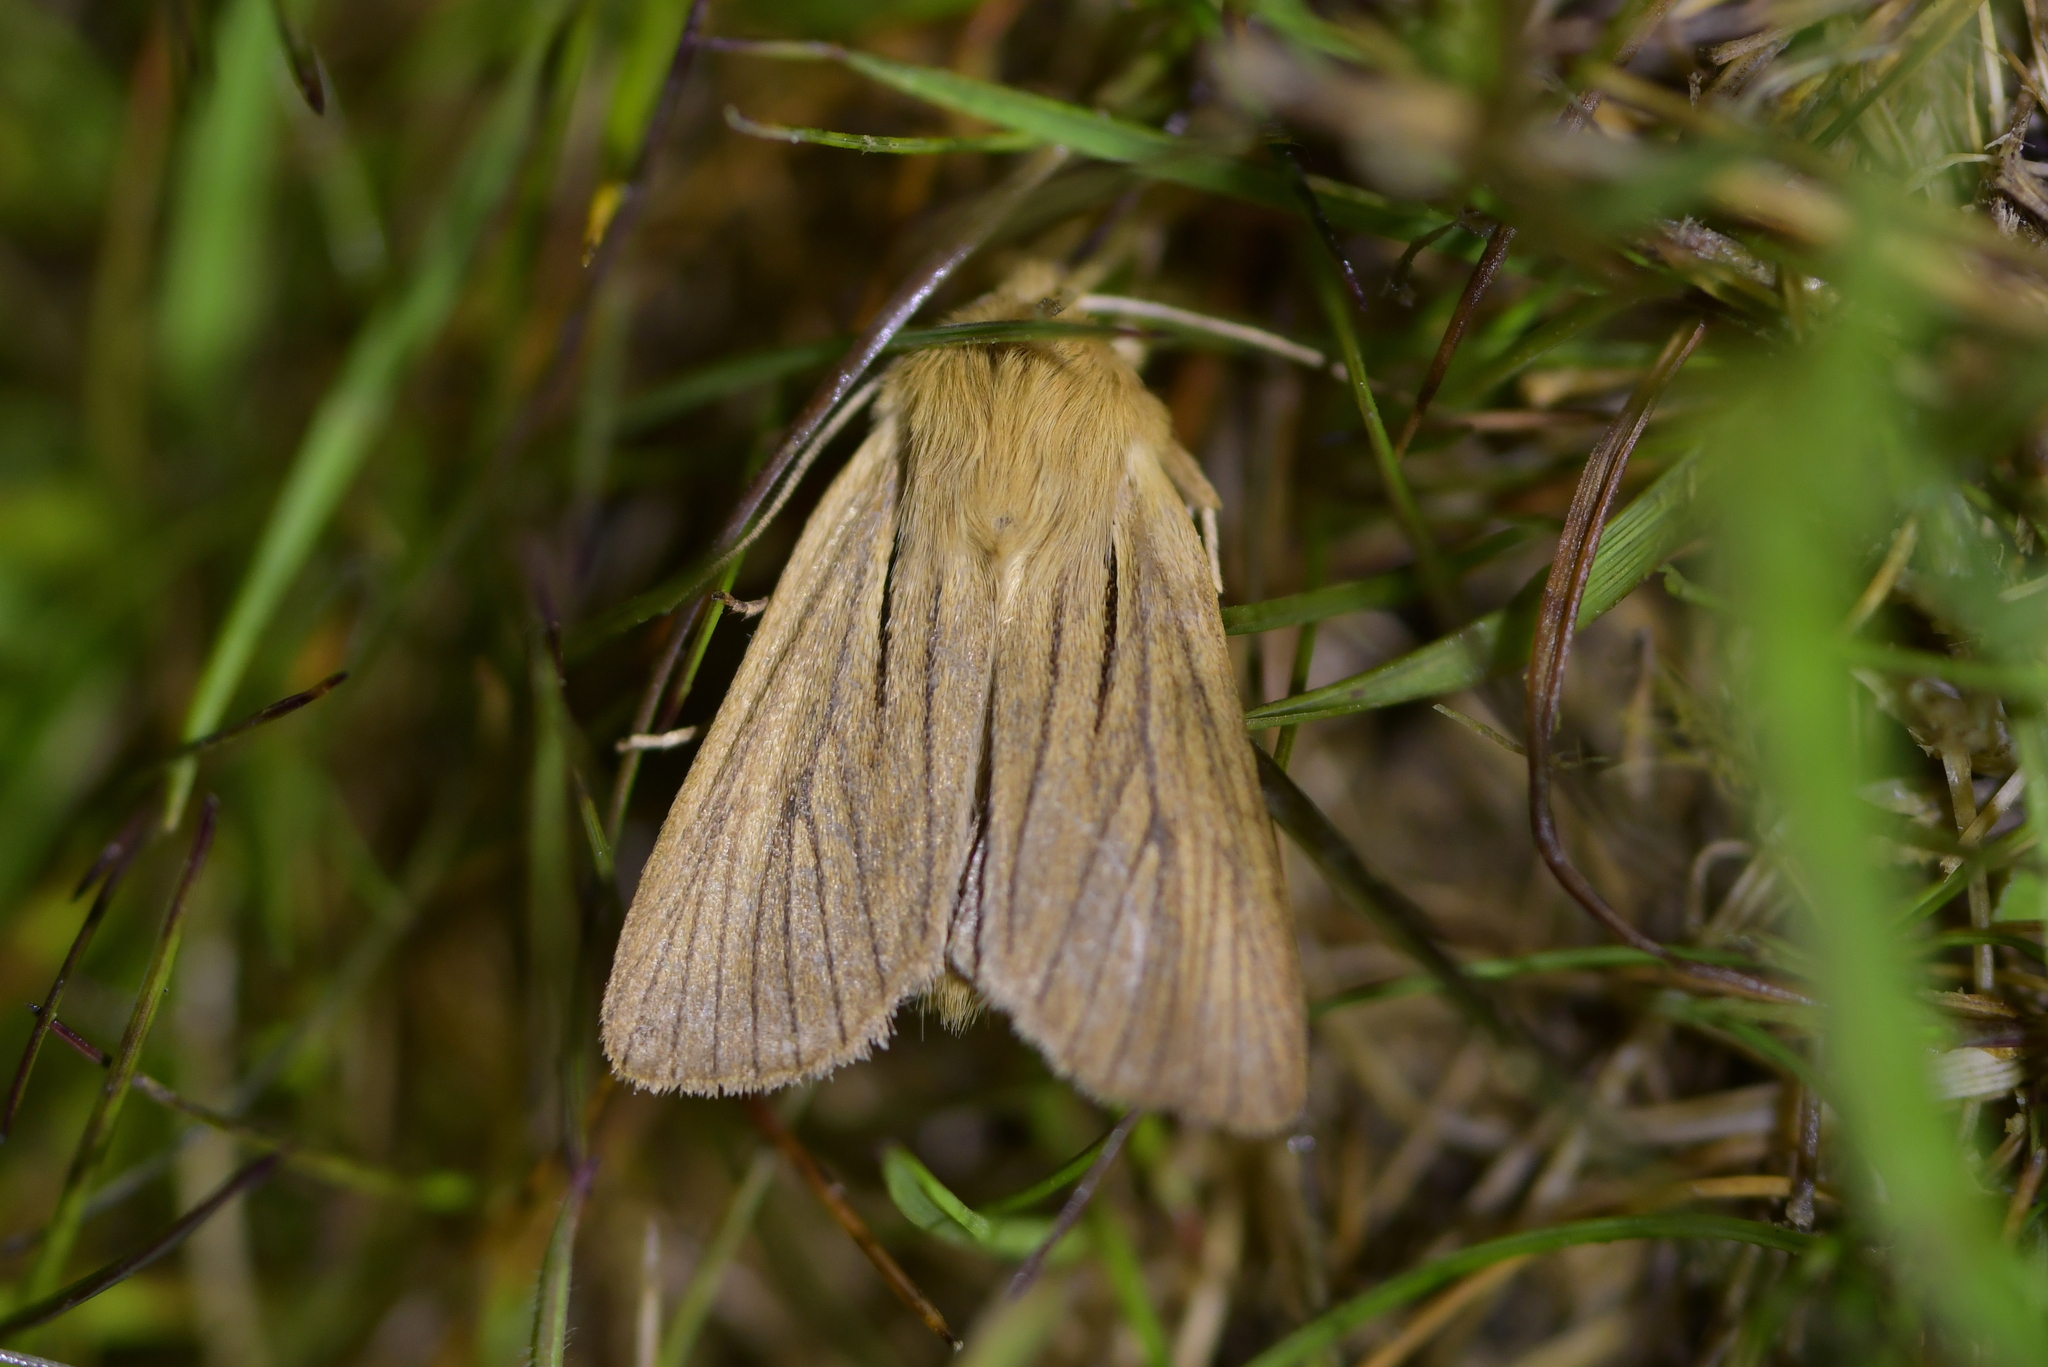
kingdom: Animalia
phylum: Arthropoda
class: Insecta
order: Lepidoptera
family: Noctuidae
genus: Ichneutica
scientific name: Ichneutica
